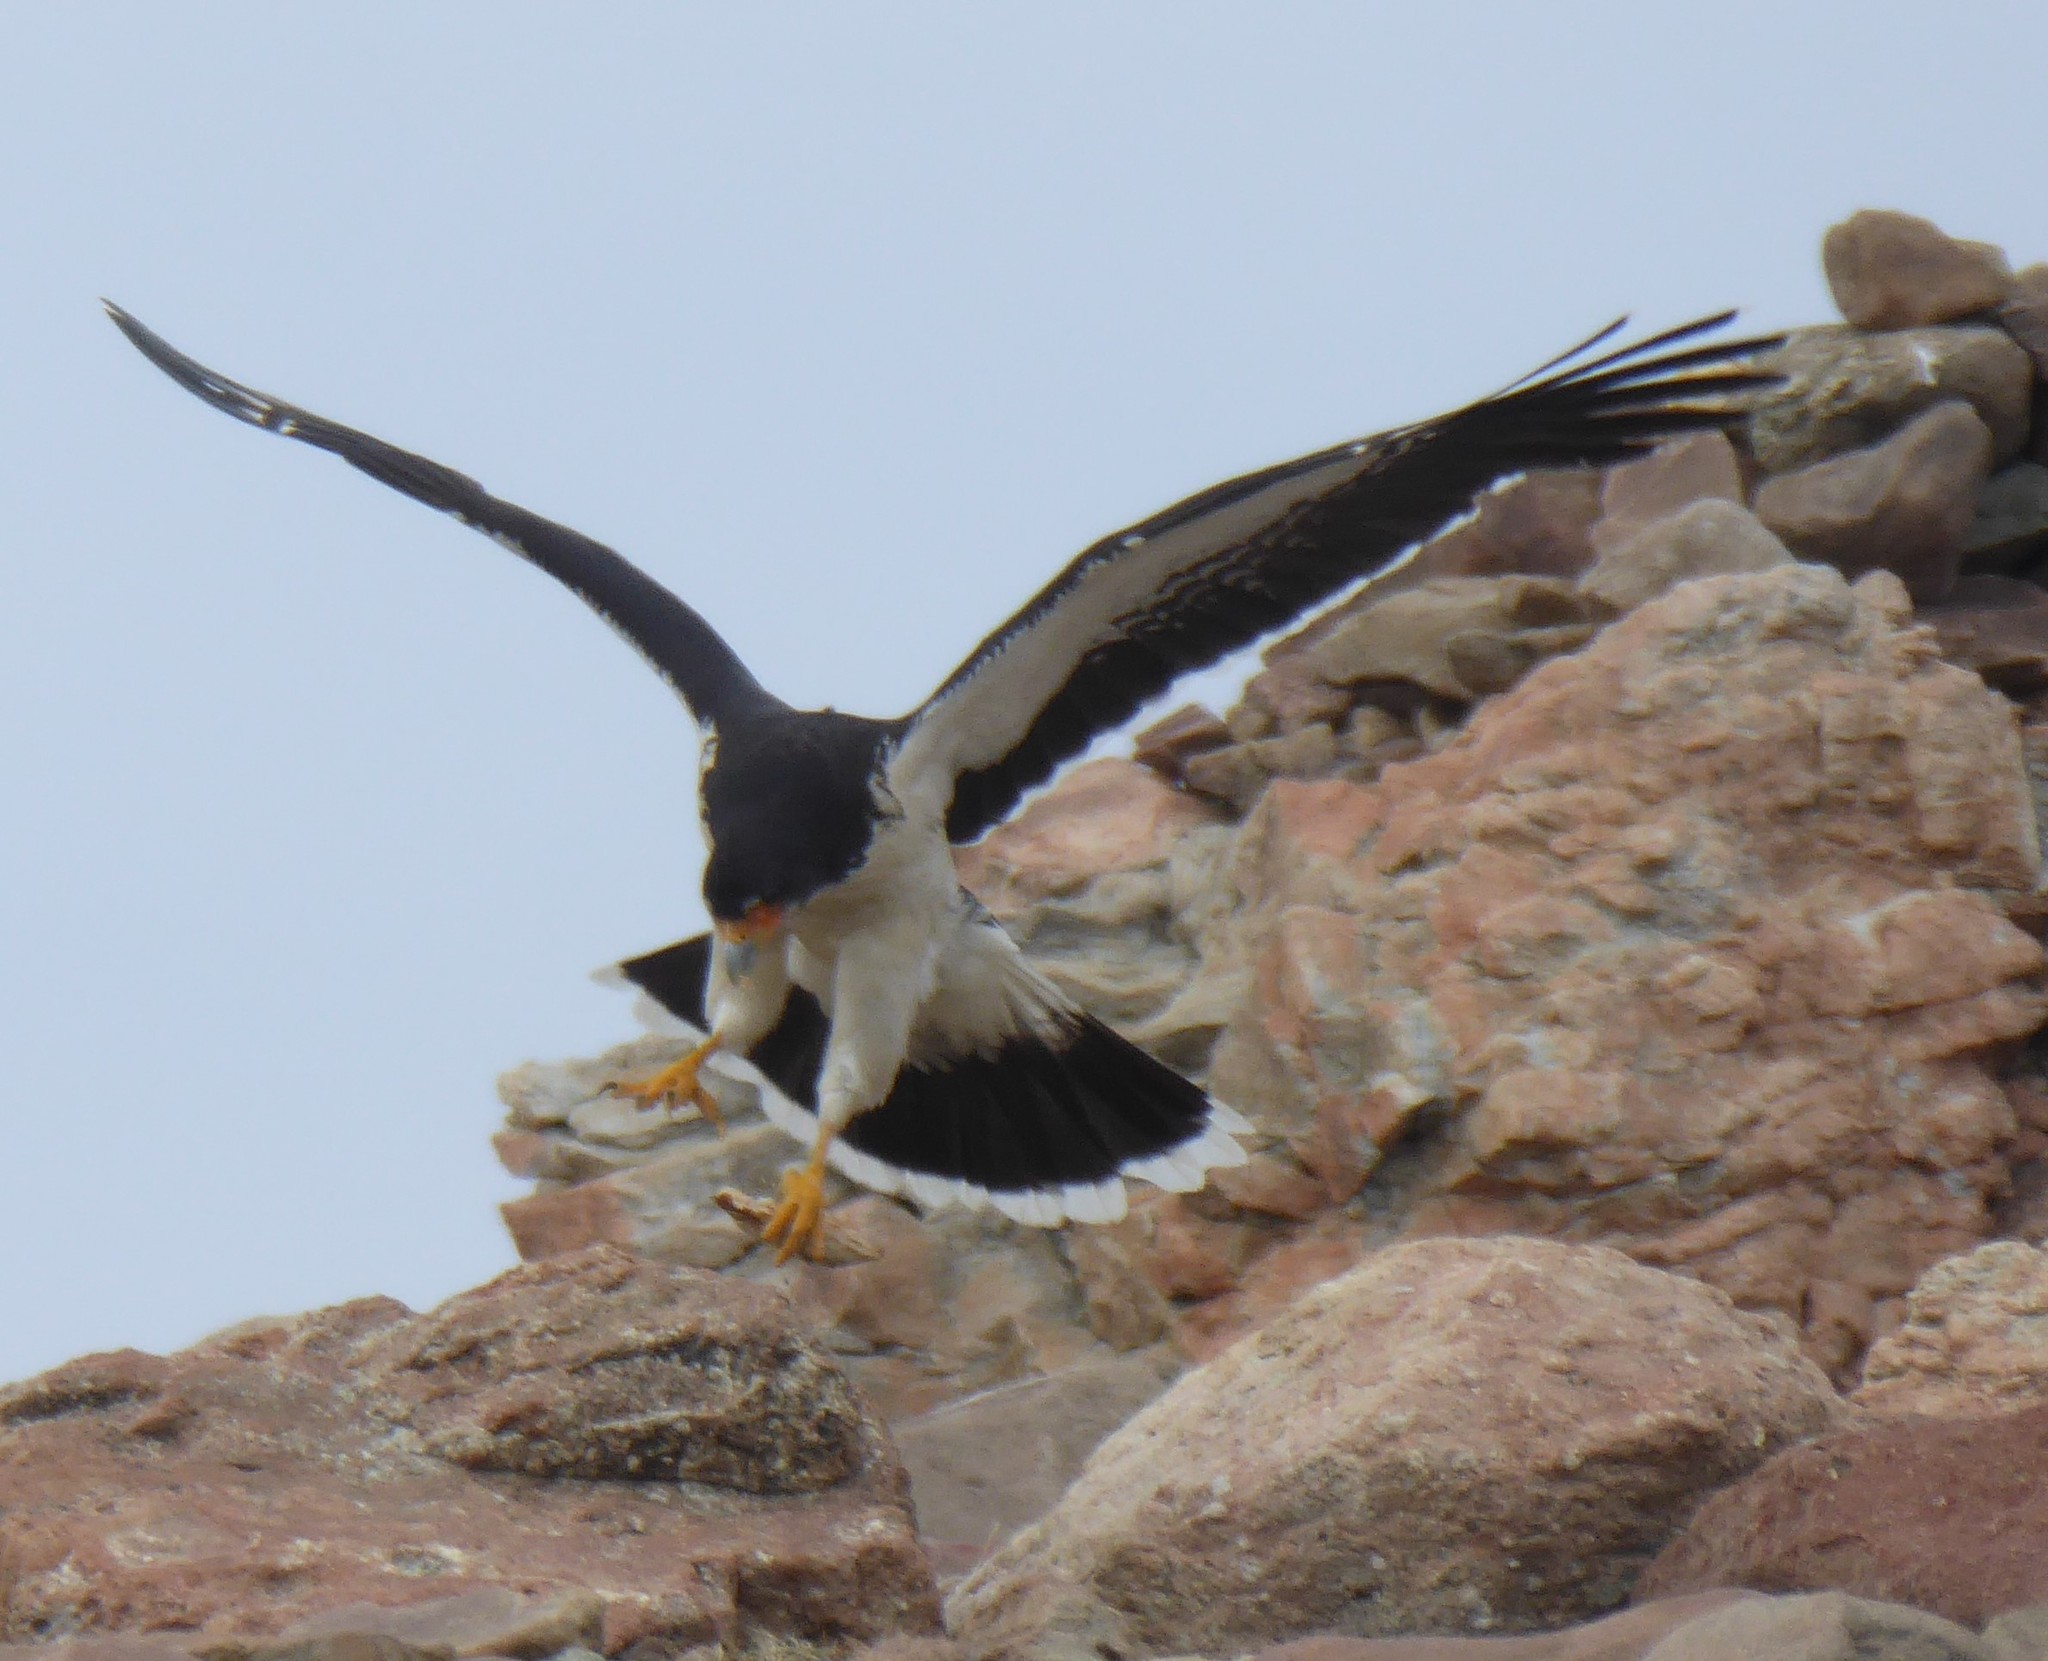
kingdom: Animalia
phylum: Chordata
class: Aves
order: Falconiformes
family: Falconidae
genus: Daptrius
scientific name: Daptrius
